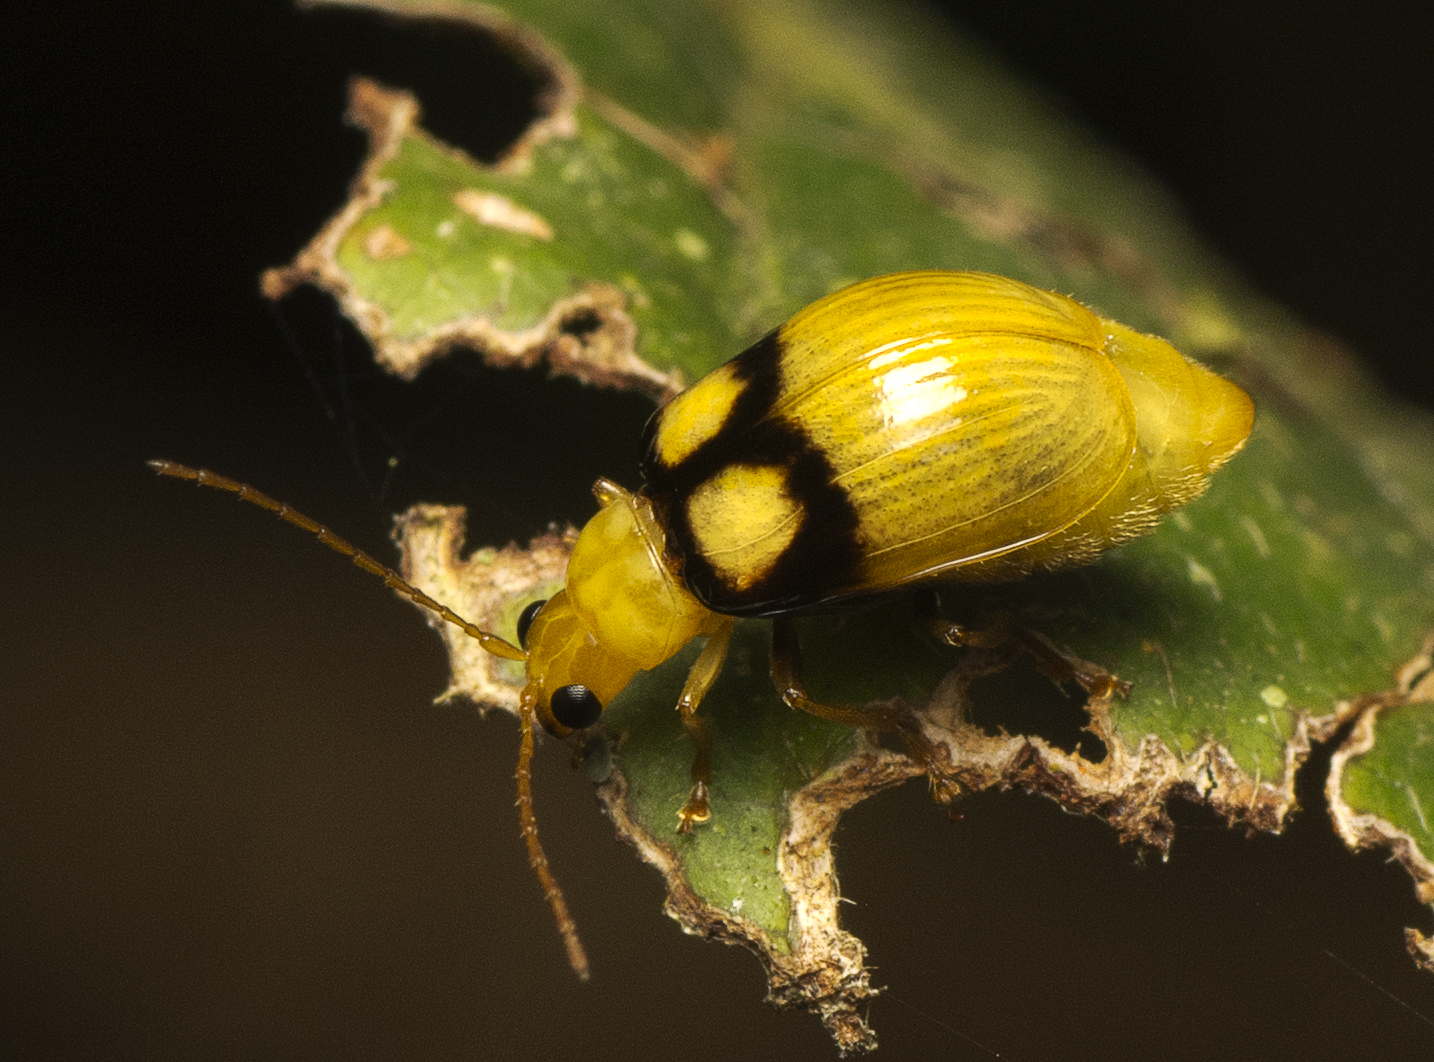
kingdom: Animalia
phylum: Arthropoda
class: Insecta
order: Coleoptera
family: Chrysomelidae
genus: Monolepta
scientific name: Monolepta
